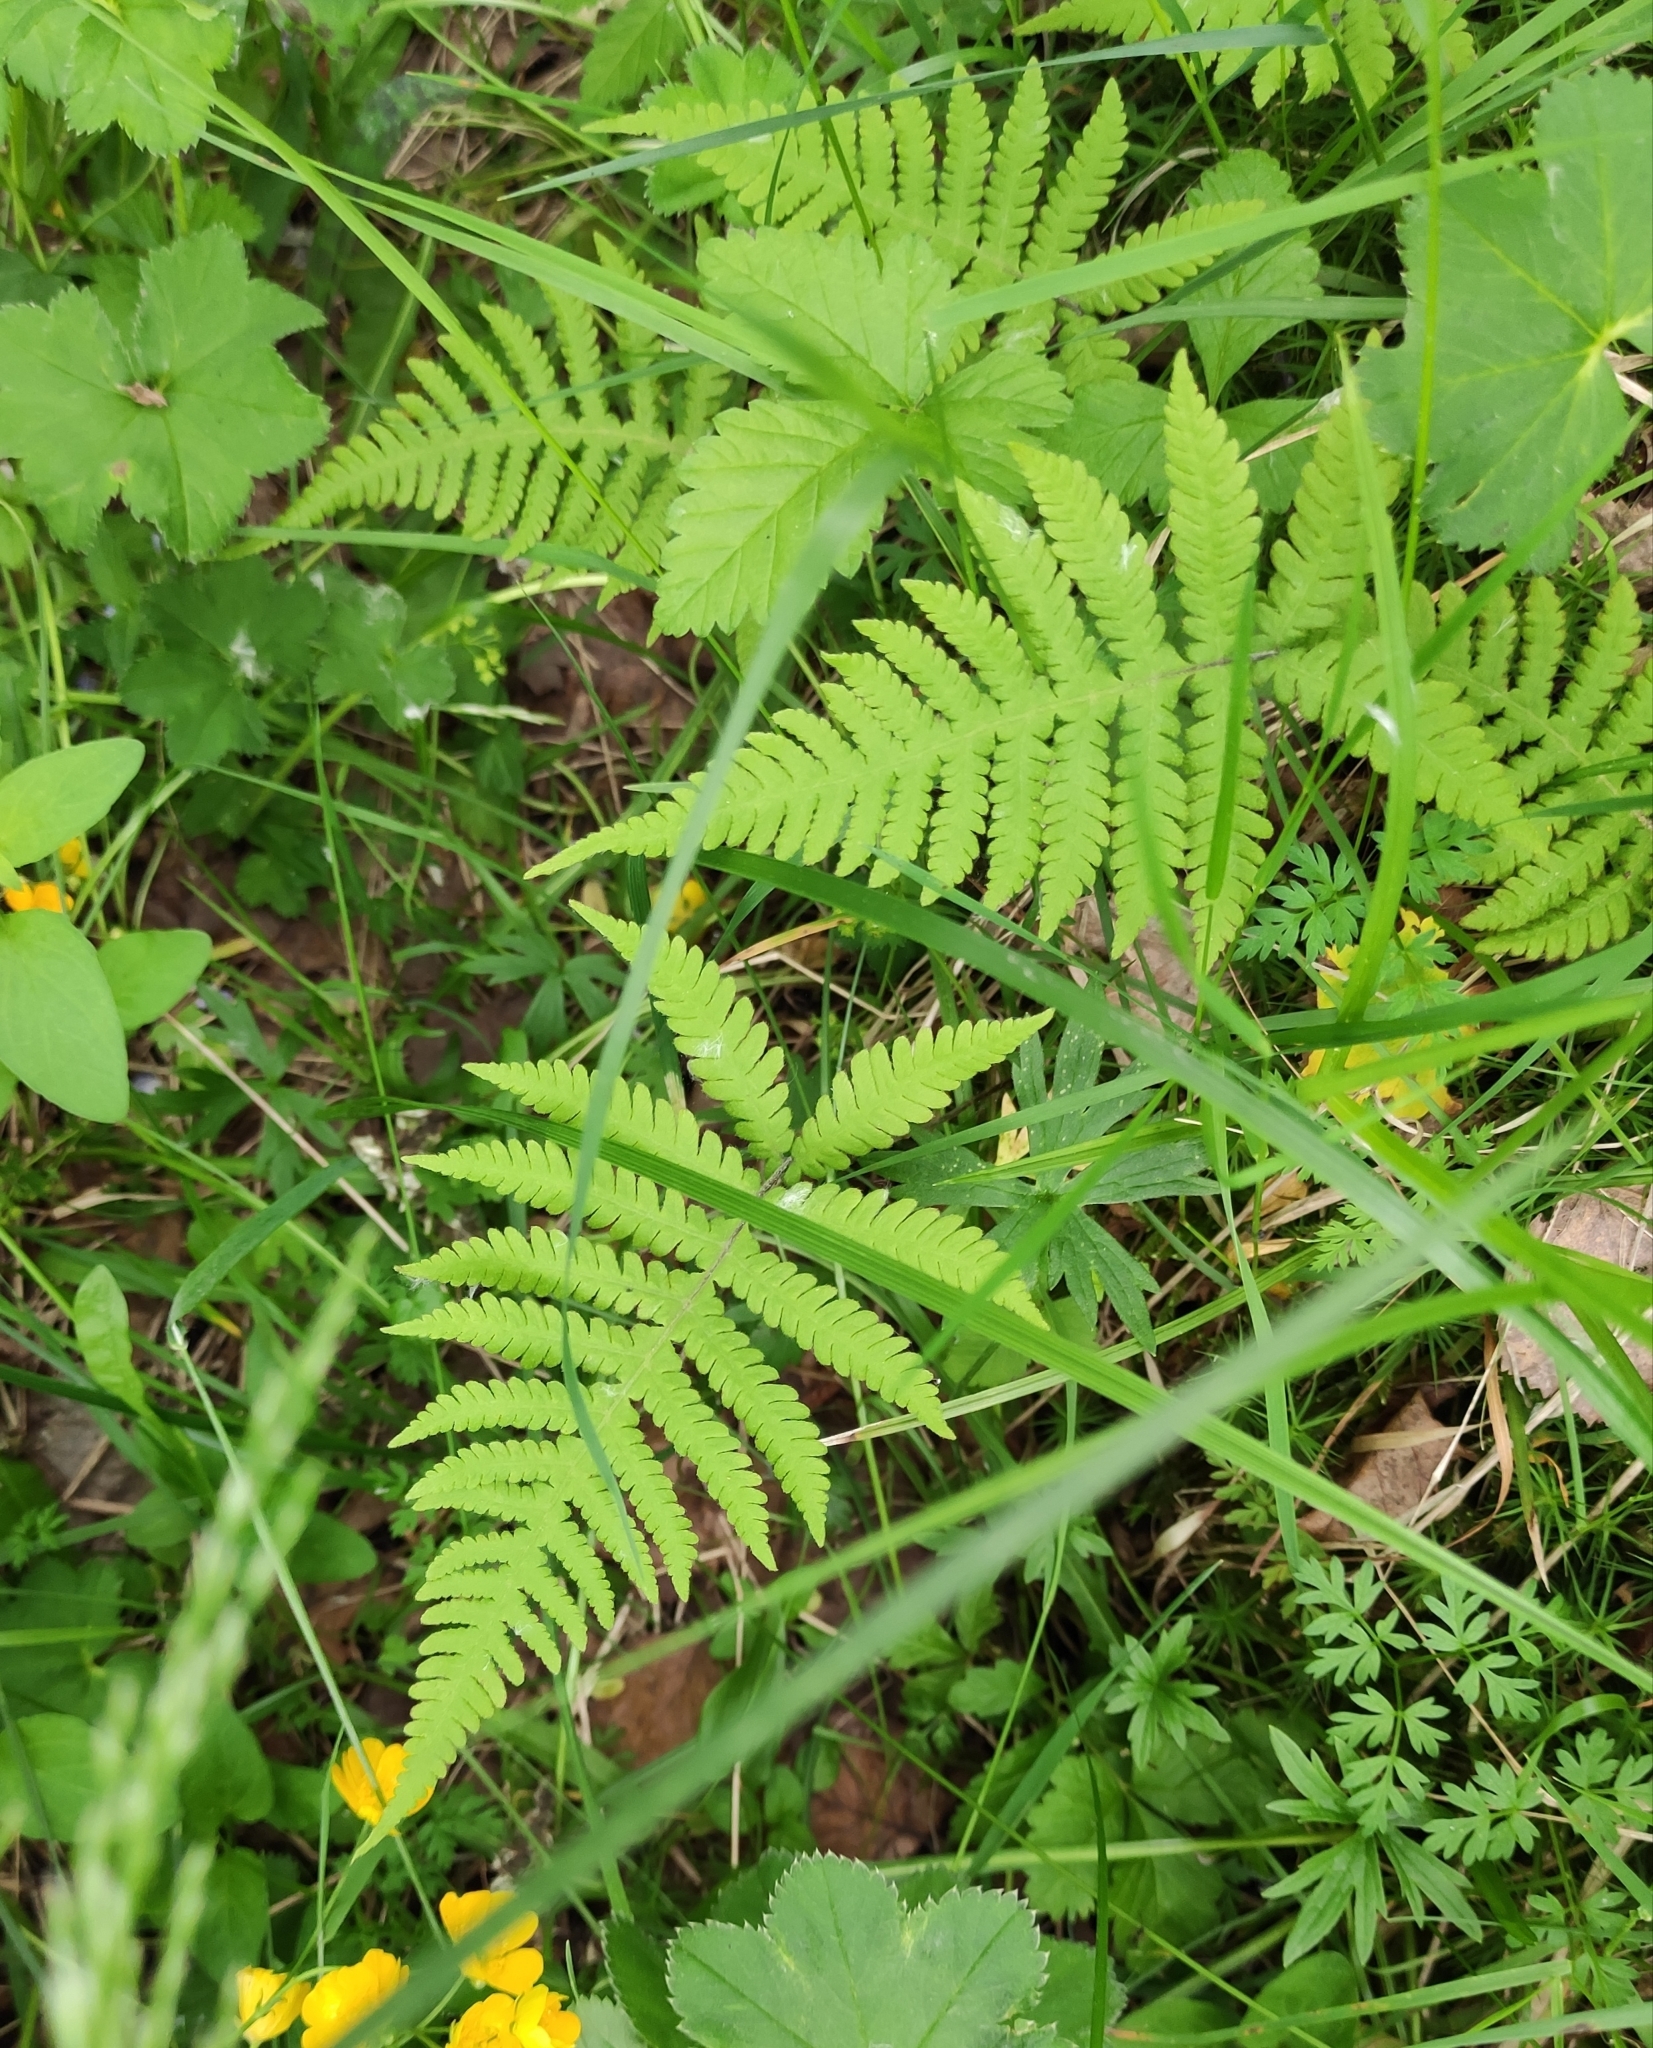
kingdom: Plantae
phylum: Tracheophyta
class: Polypodiopsida
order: Polypodiales
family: Thelypteridaceae
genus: Phegopteris
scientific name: Phegopteris connectilis
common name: Beech fern
